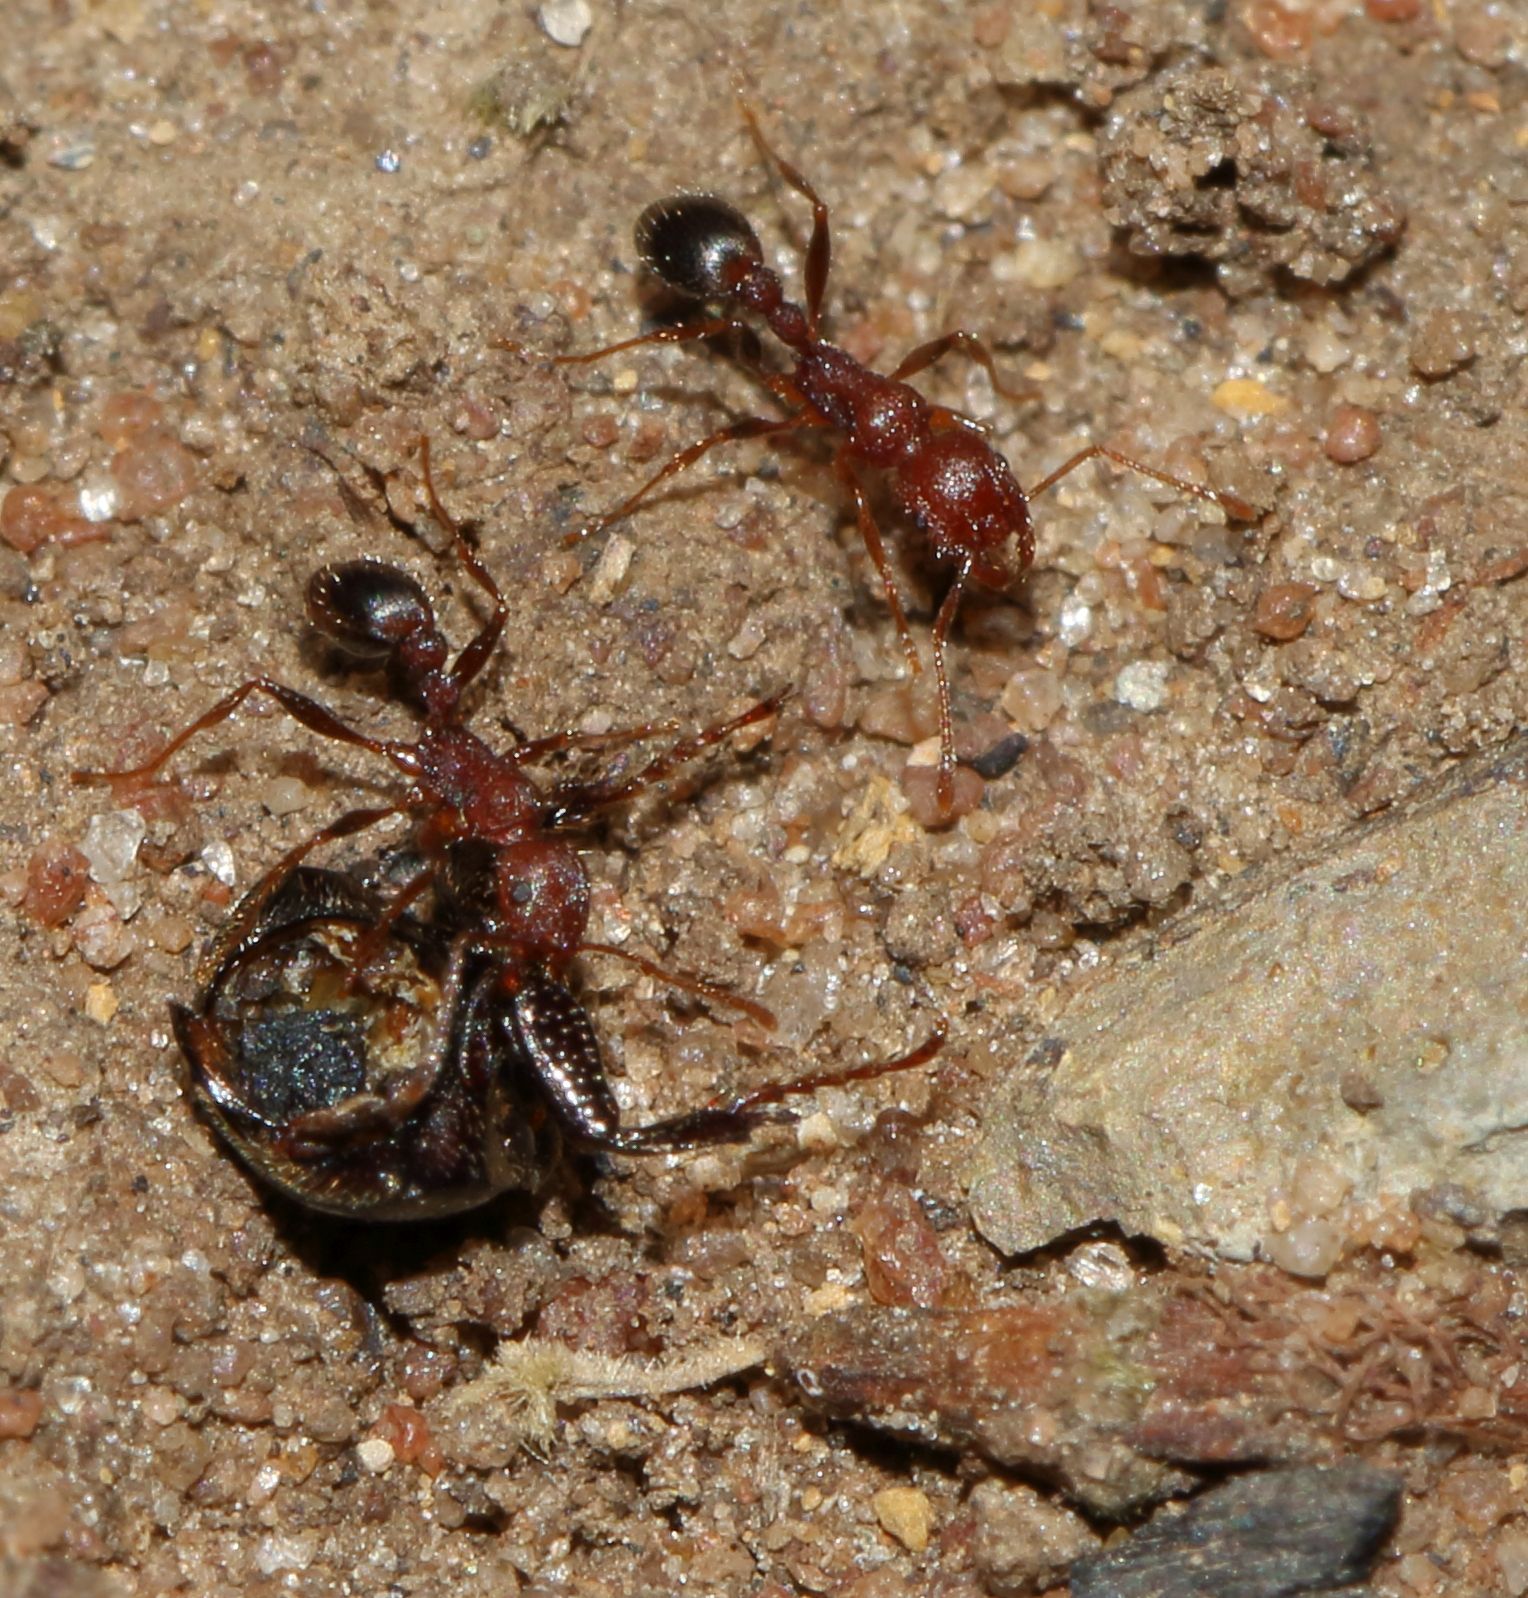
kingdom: Animalia
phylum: Arthropoda
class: Insecta
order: Hymenoptera
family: Formicidae
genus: Tetramorium
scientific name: Tetramorium sericeiventre
